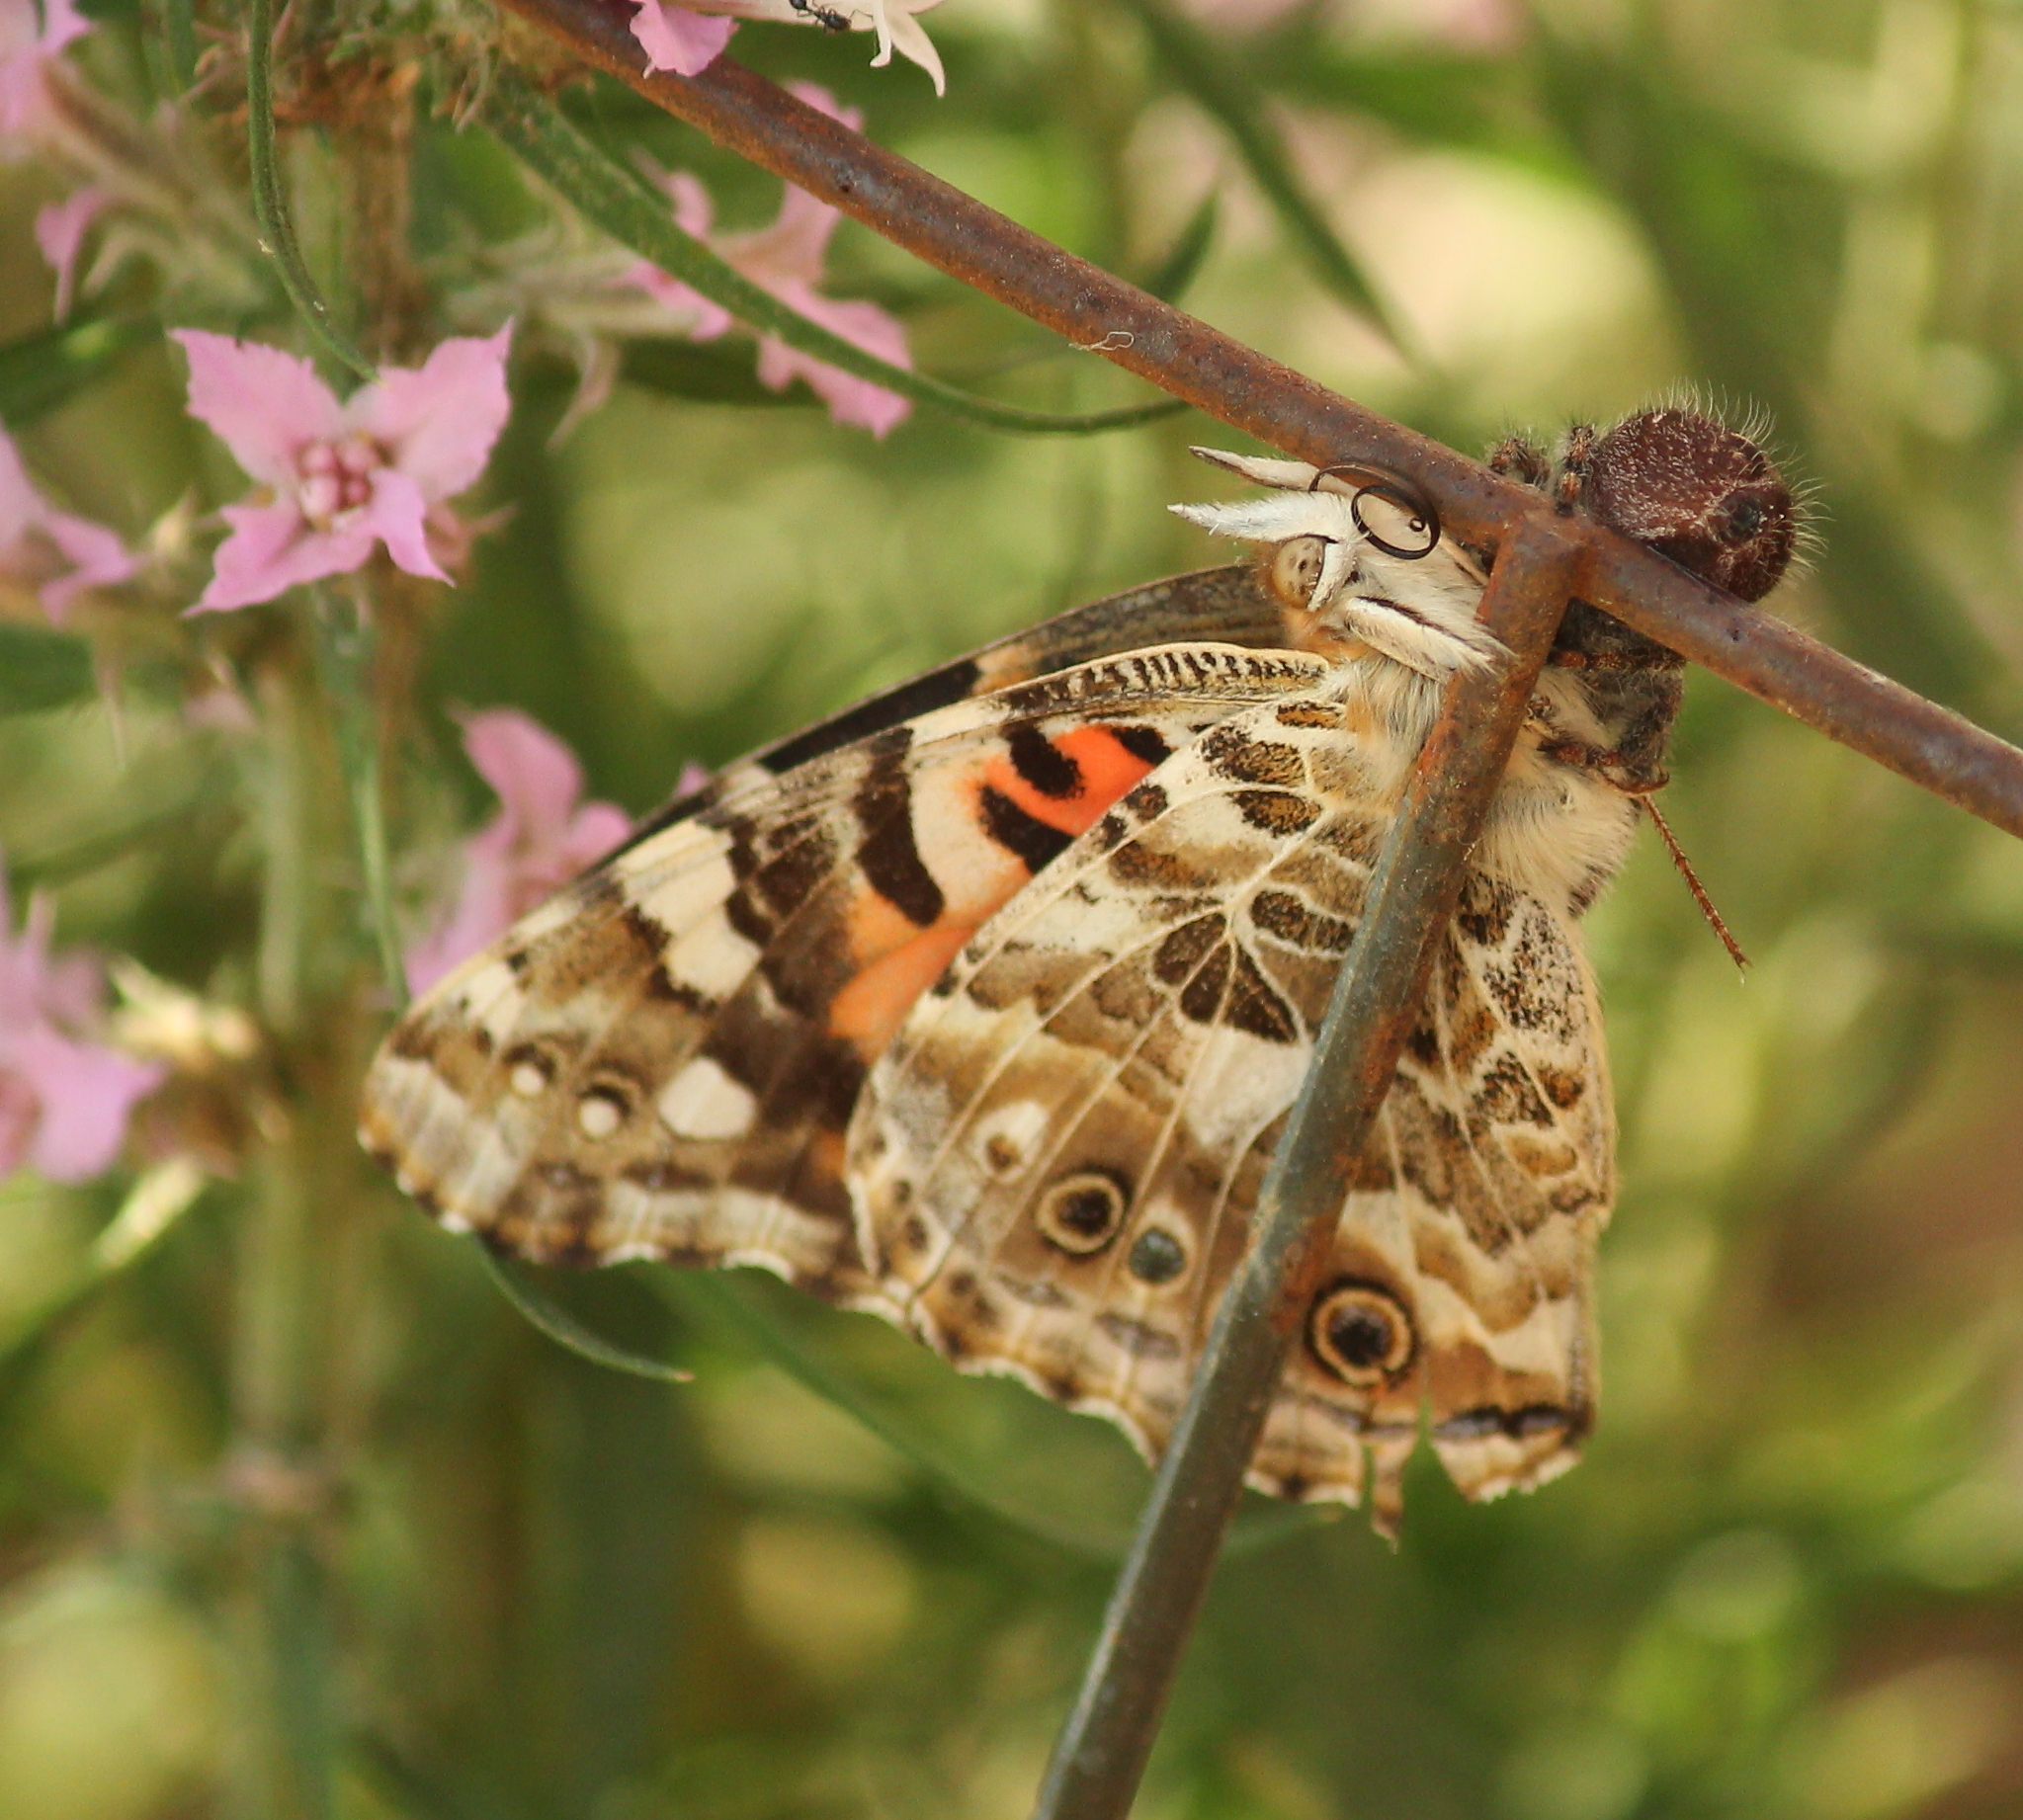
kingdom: Animalia
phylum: Arthropoda
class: Insecta
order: Lepidoptera
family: Nymphalidae
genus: Vanessa
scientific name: Vanessa cardui
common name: Painted lady
